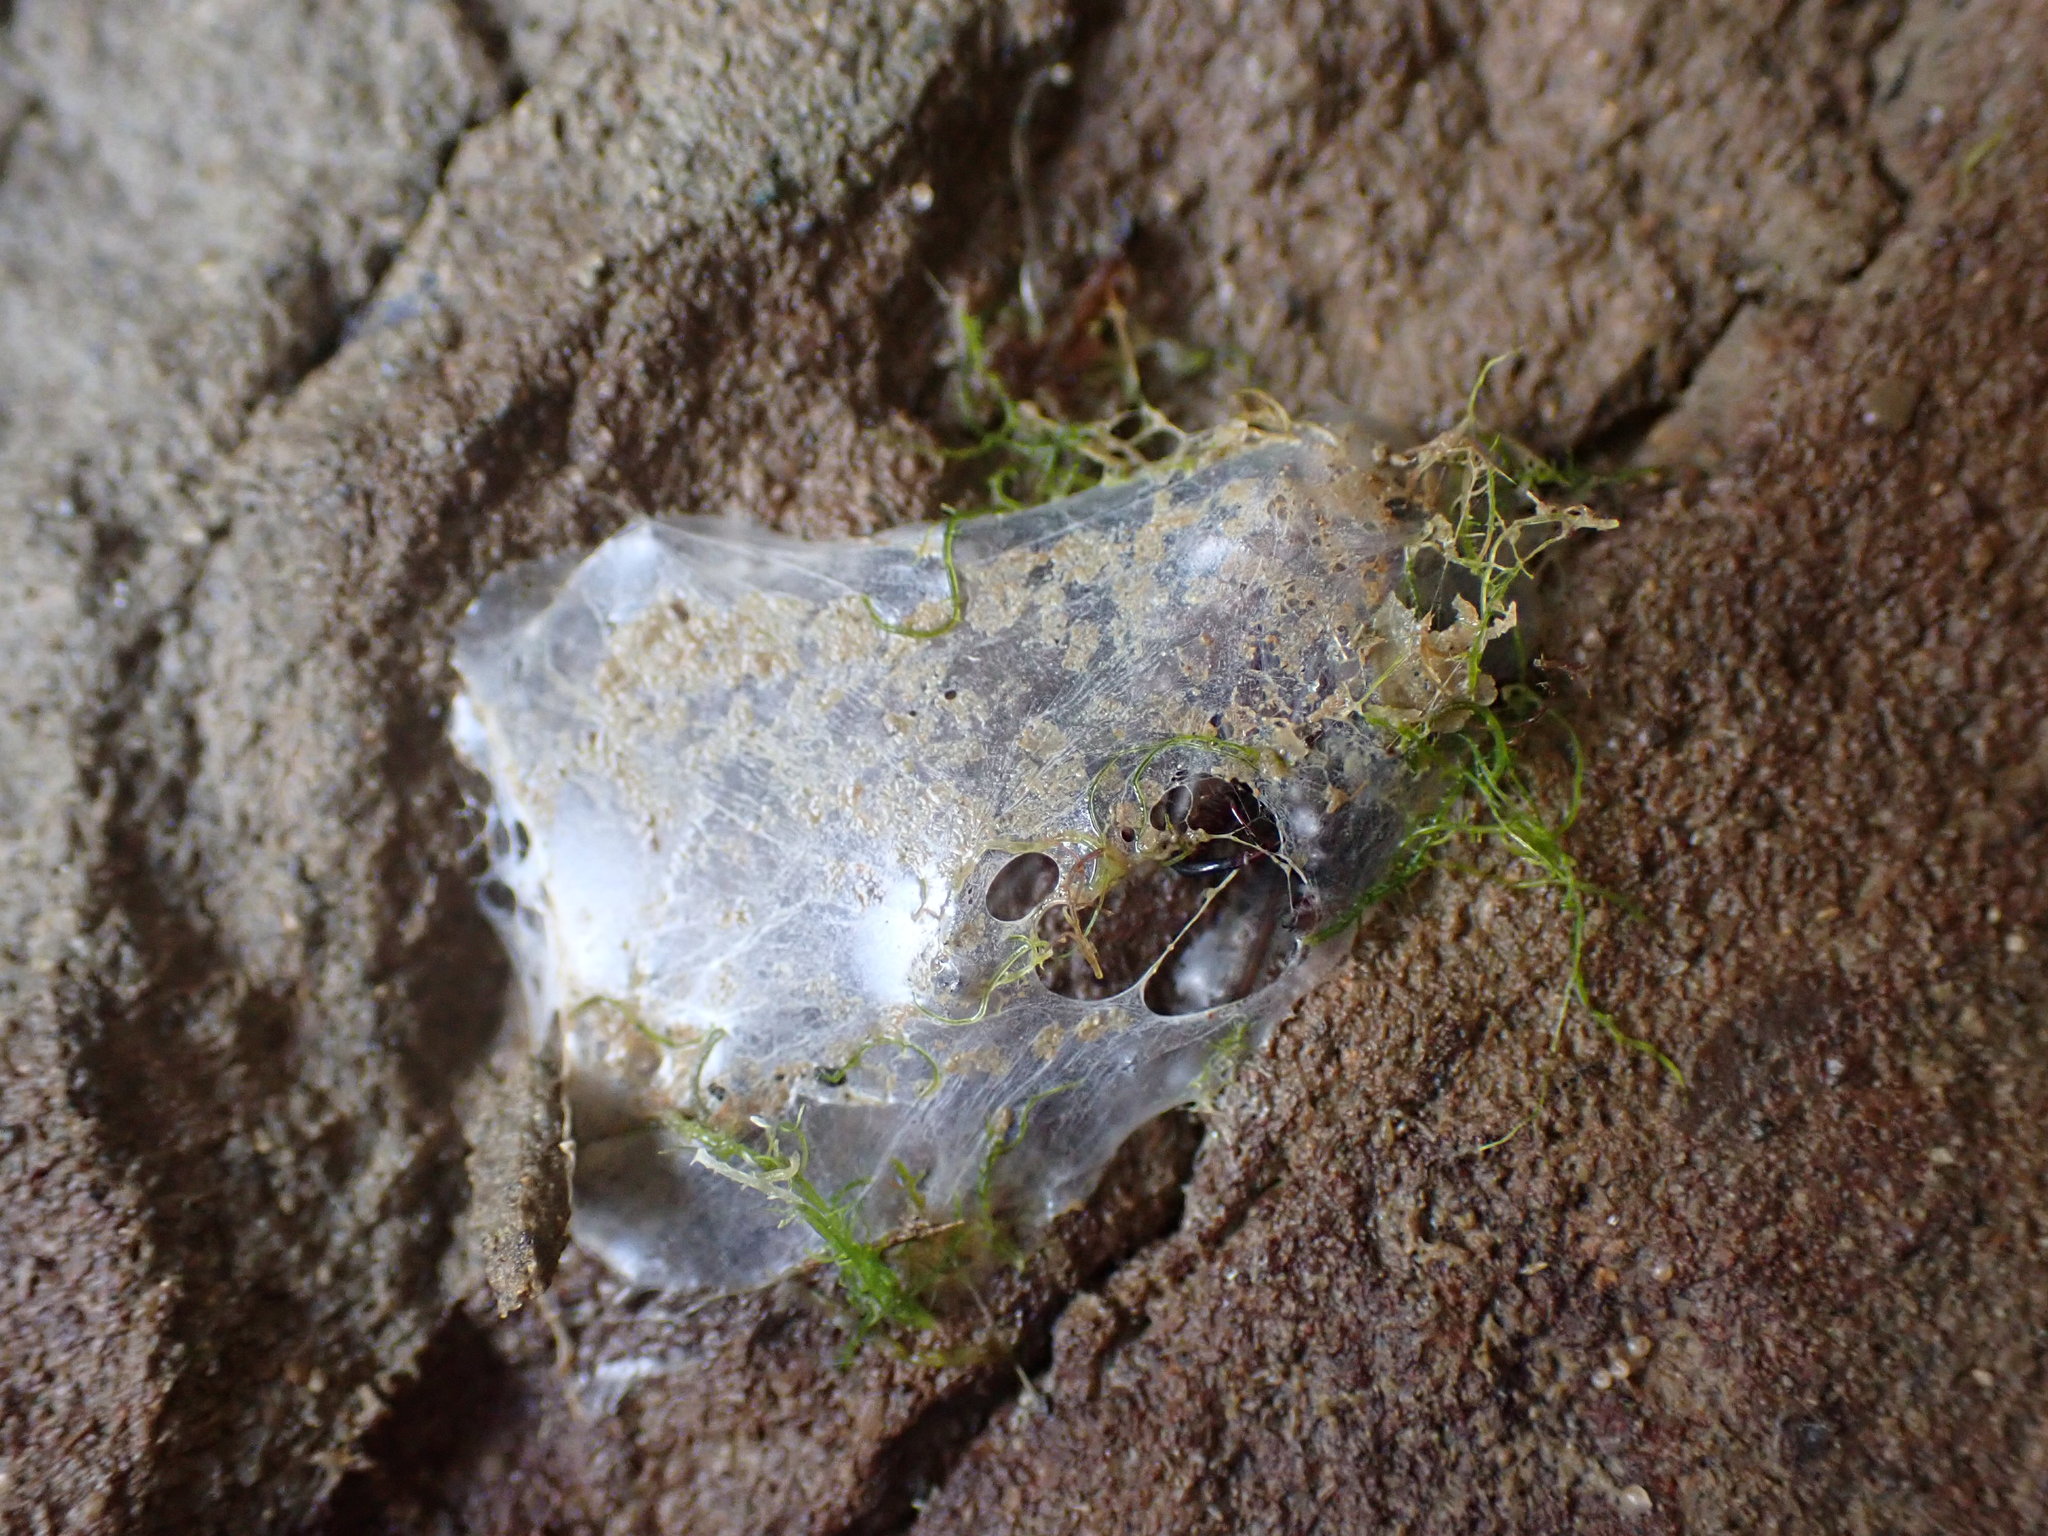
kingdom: Animalia
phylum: Arthropoda
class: Arachnida
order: Araneae
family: Desidae
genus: Desis
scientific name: Desis marina
